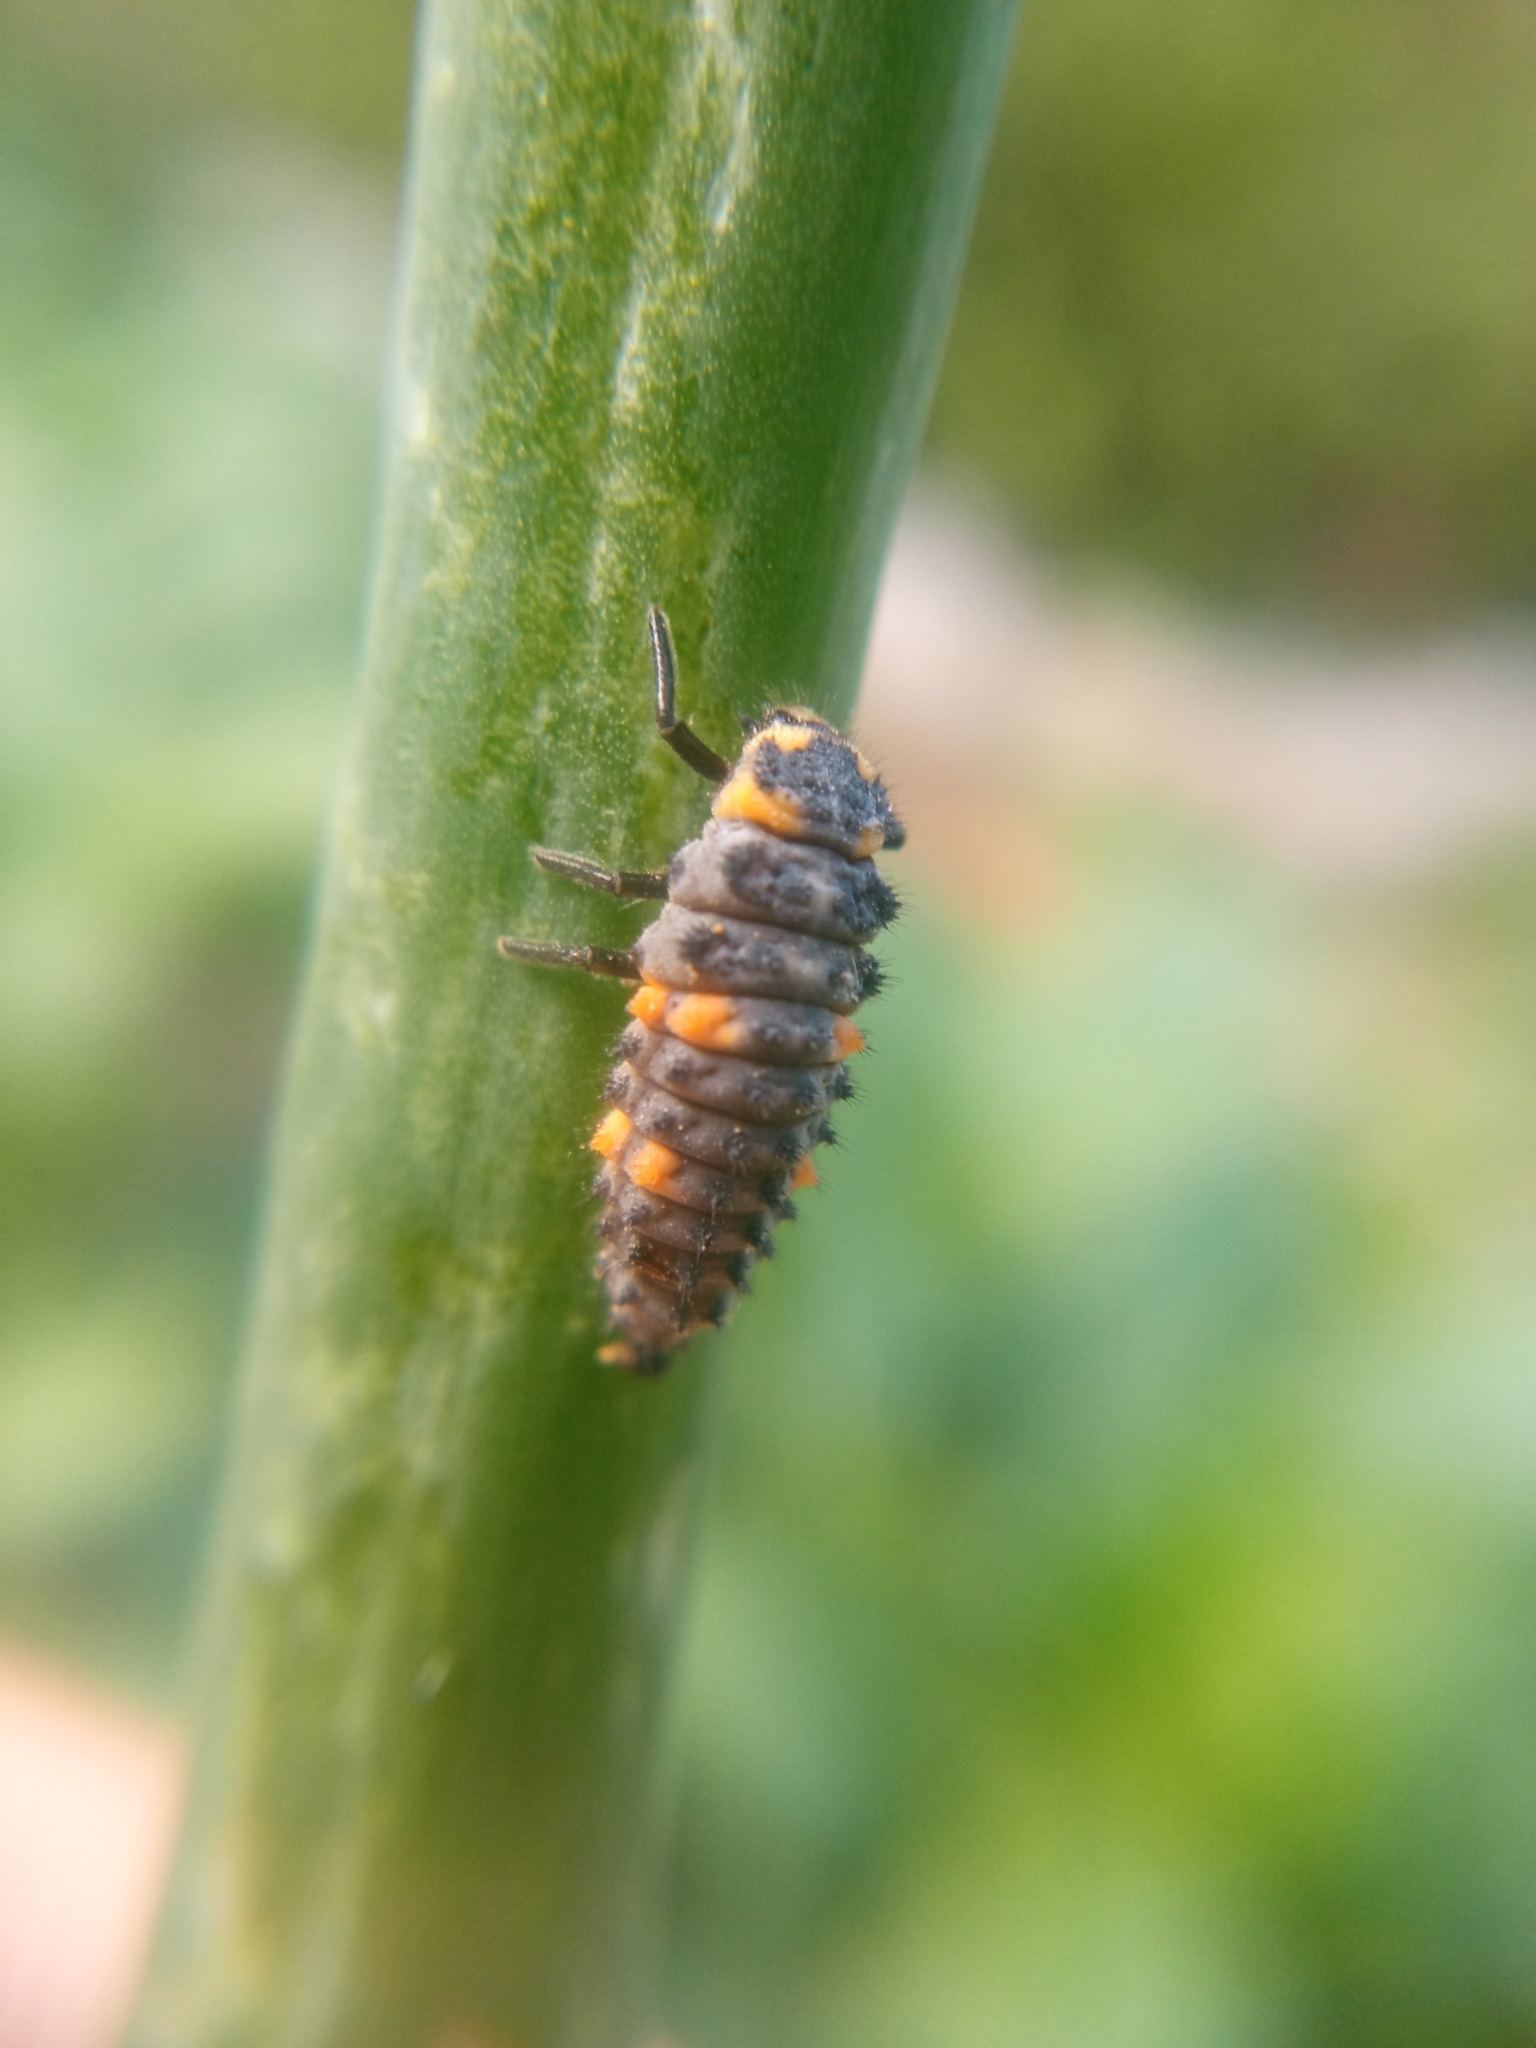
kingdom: Animalia
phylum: Arthropoda
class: Insecta
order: Coleoptera
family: Coccinellidae
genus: Coccinella
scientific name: Coccinella septempunctata
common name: Sevenspotted lady beetle
